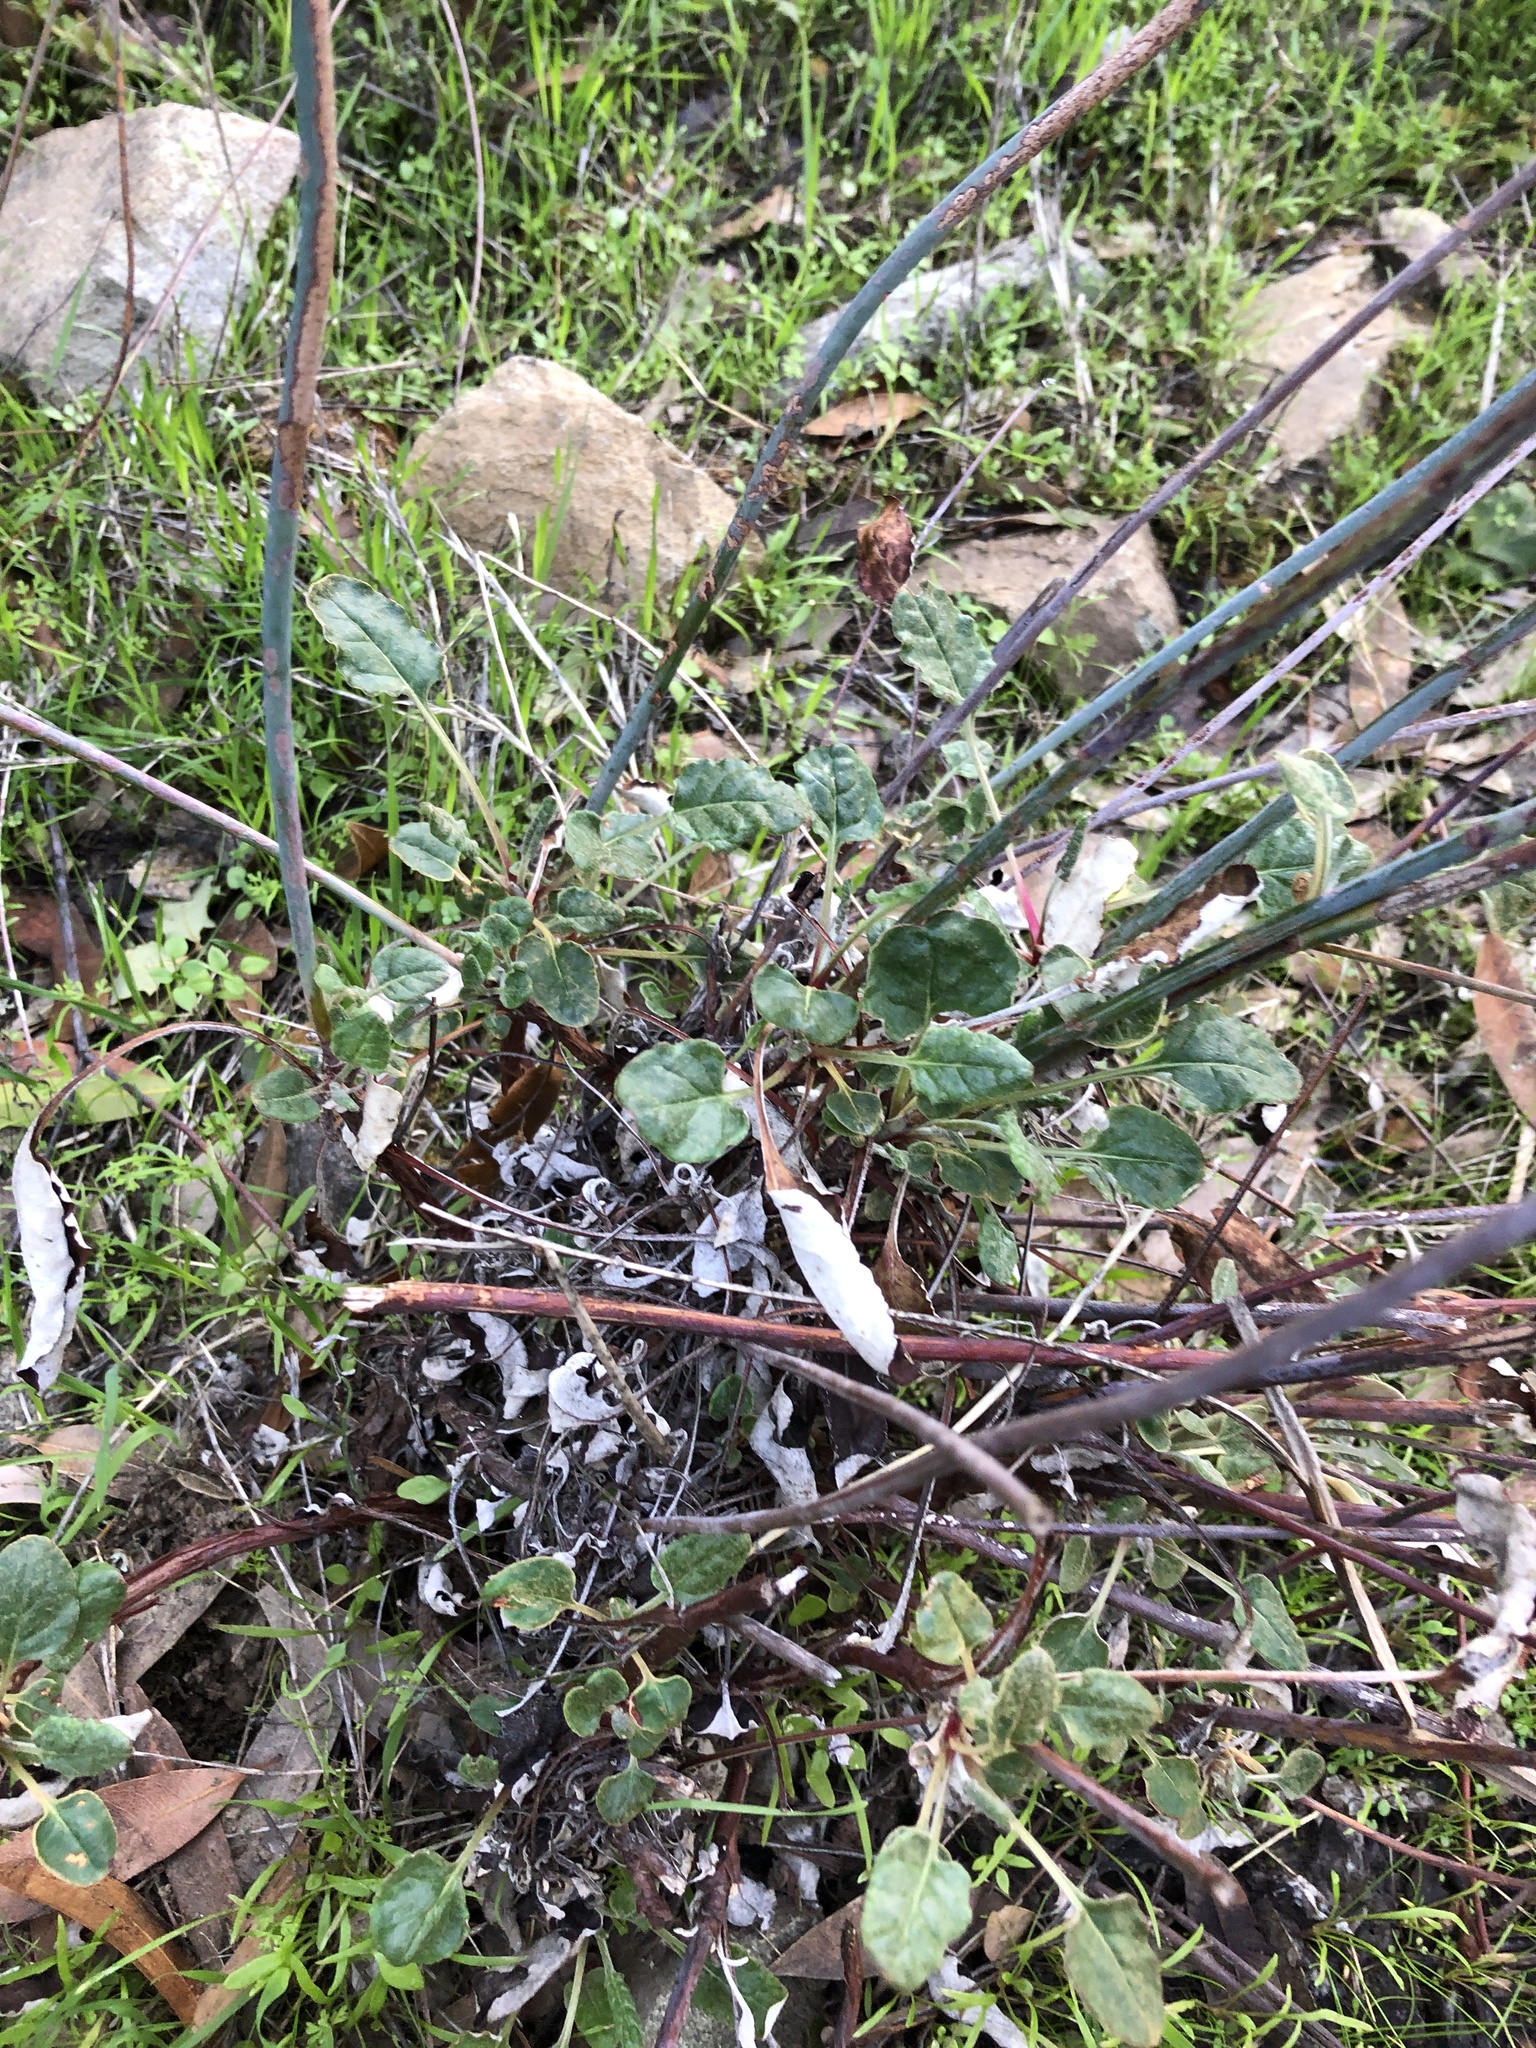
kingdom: Plantae
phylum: Tracheophyta
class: Magnoliopsida
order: Caryophyllales
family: Polygonaceae
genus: Eriogonum
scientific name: Eriogonum nudum
